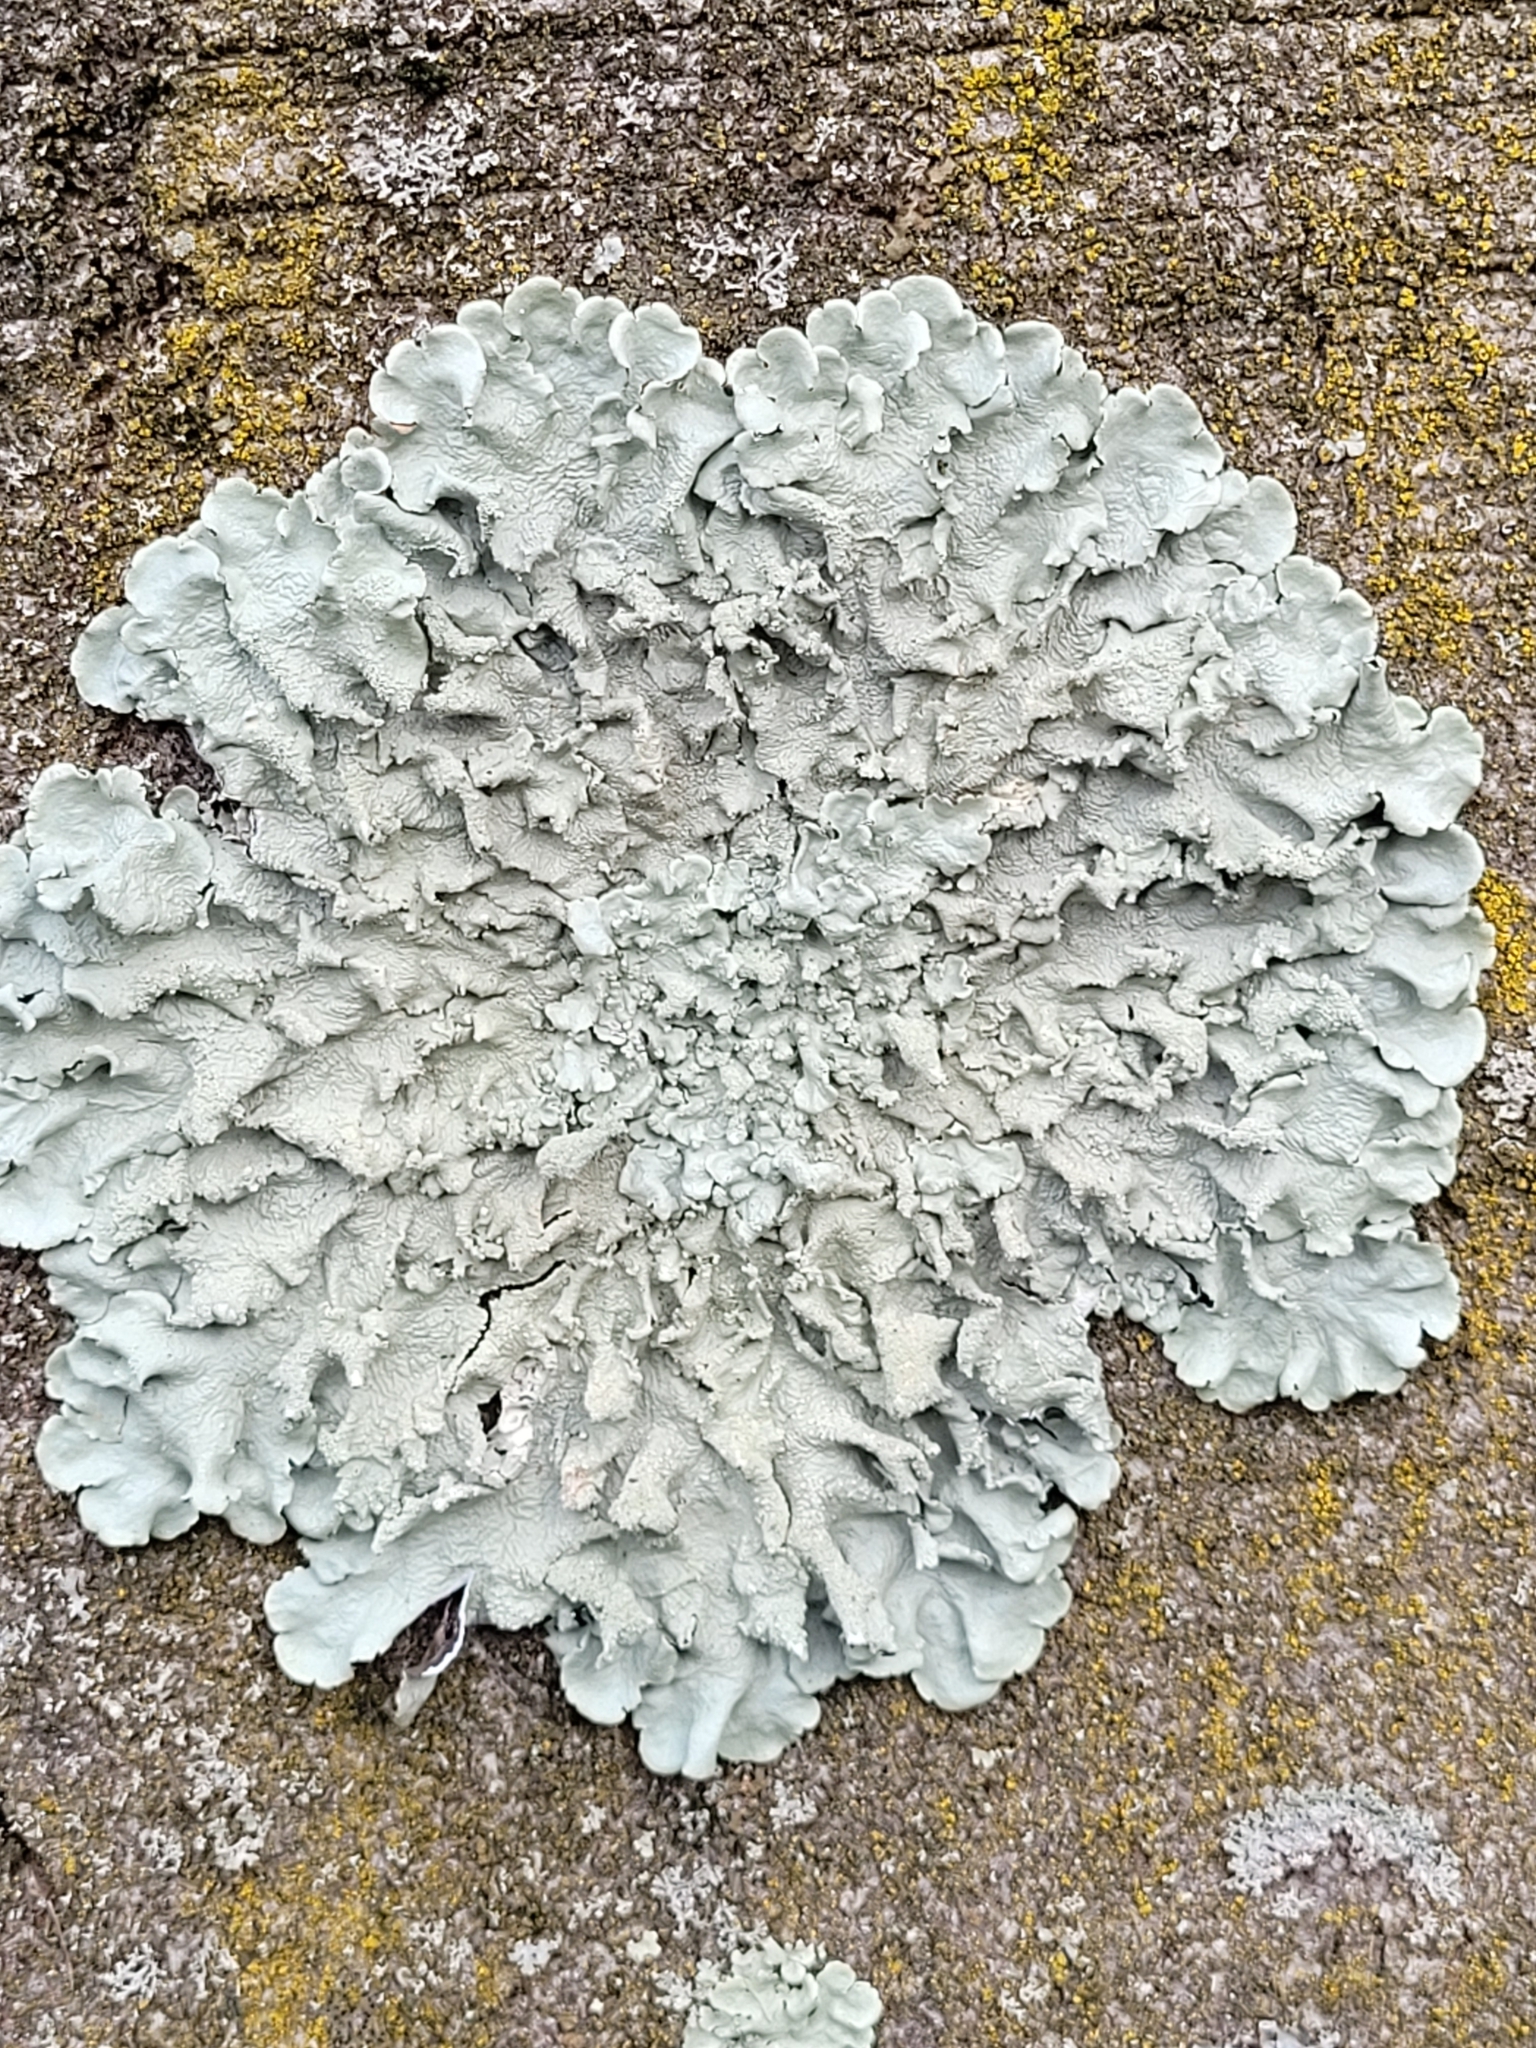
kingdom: Fungi
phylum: Ascomycota
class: Lecanoromycetes
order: Lecanorales
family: Parmeliaceae
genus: Flavoparmelia
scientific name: Flavoparmelia caperata
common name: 40-mile per hour lichen
